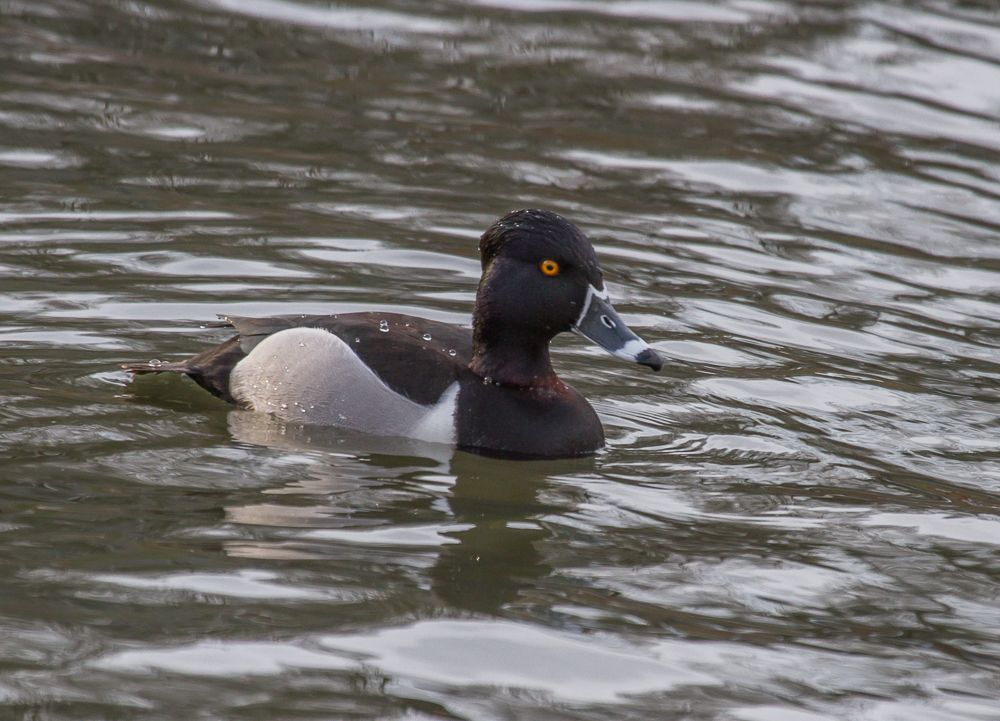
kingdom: Animalia
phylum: Chordata
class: Aves
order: Anseriformes
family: Anatidae
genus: Aythya
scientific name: Aythya collaris
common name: Ring-necked duck
